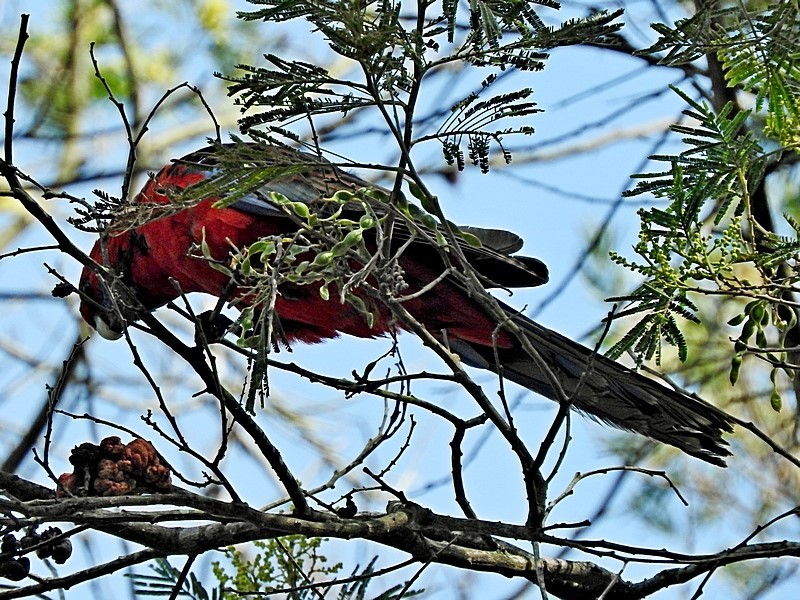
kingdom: Animalia
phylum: Chordata
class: Aves
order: Psittaciformes
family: Psittacidae
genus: Platycercus
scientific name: Platycercus elegans
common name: Crimson rosella
